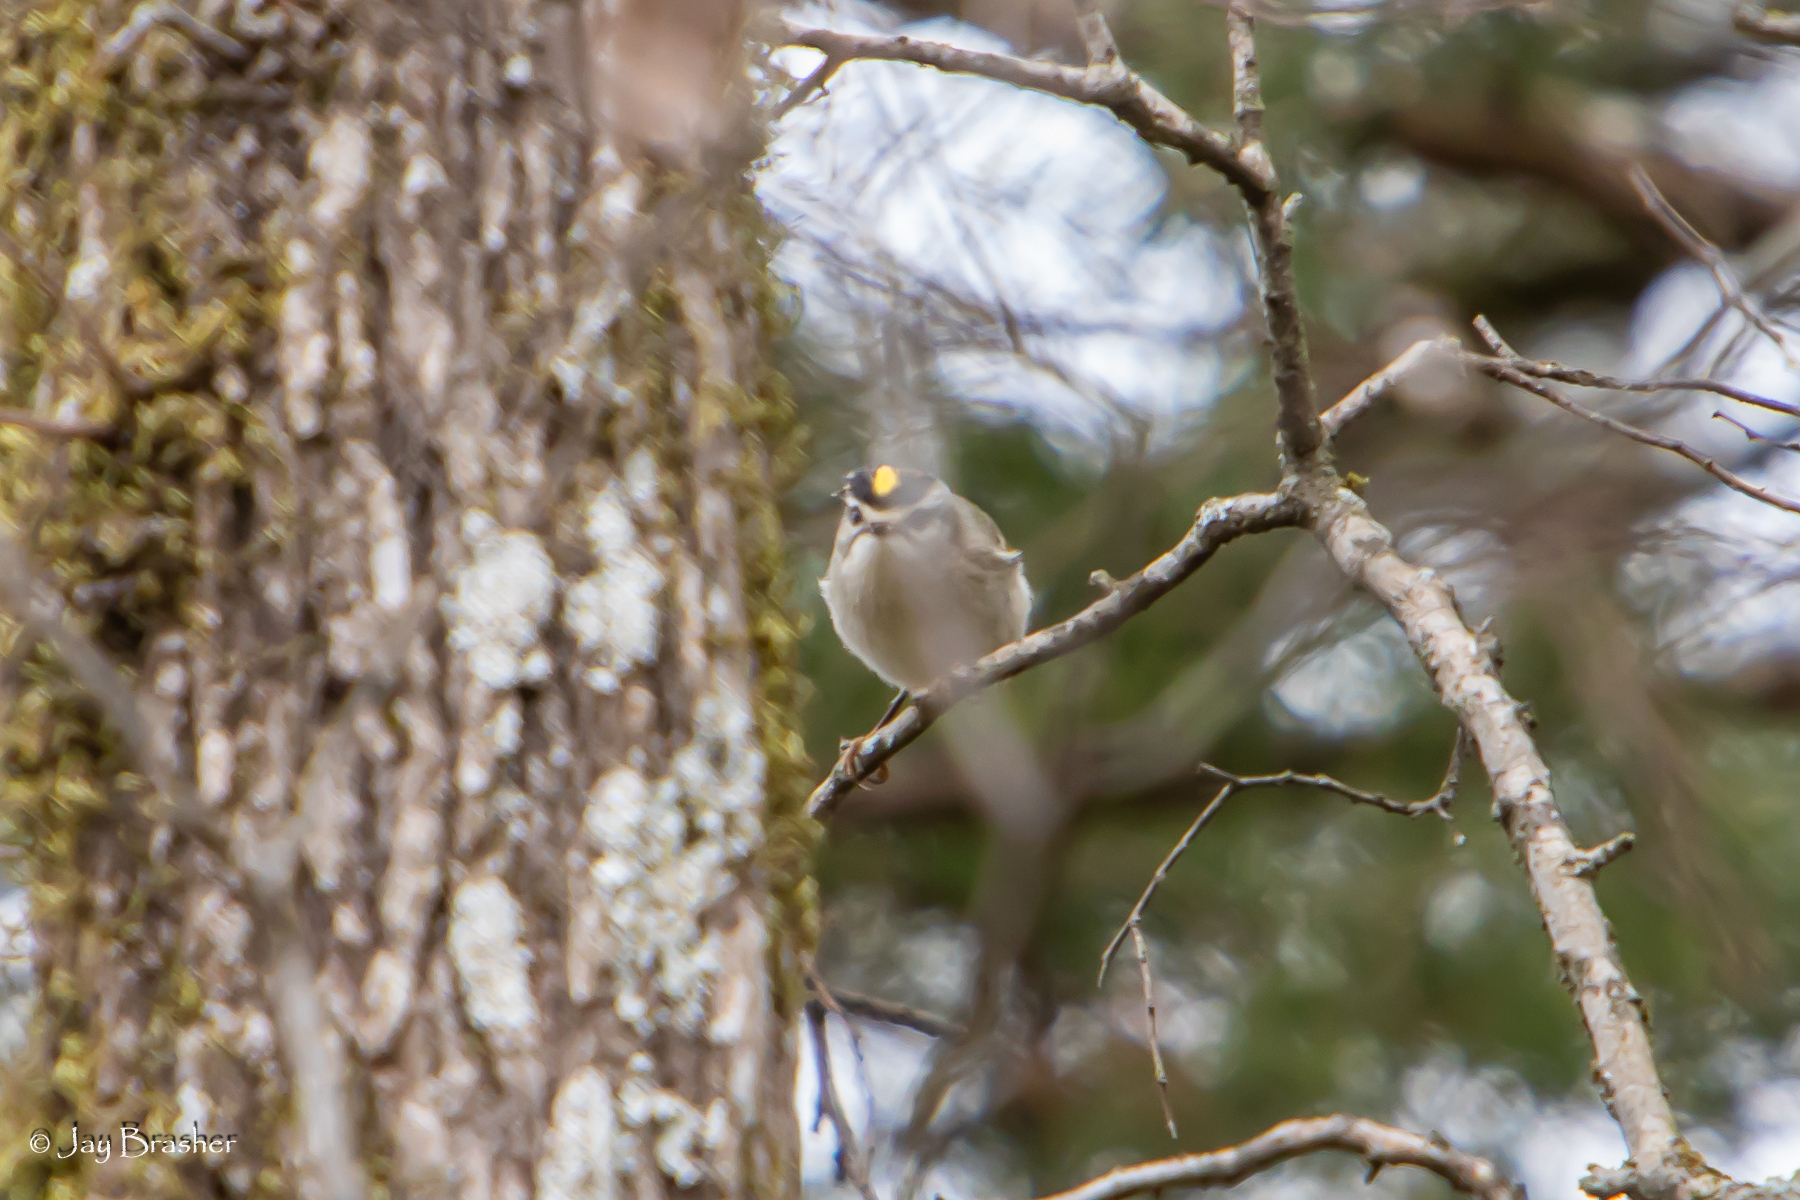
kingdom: Animalia
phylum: Chordata
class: Aves
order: Passeriformes
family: Regulidae
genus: Regulus
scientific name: Regulus satrapa
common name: Golden-crowned kinglet
